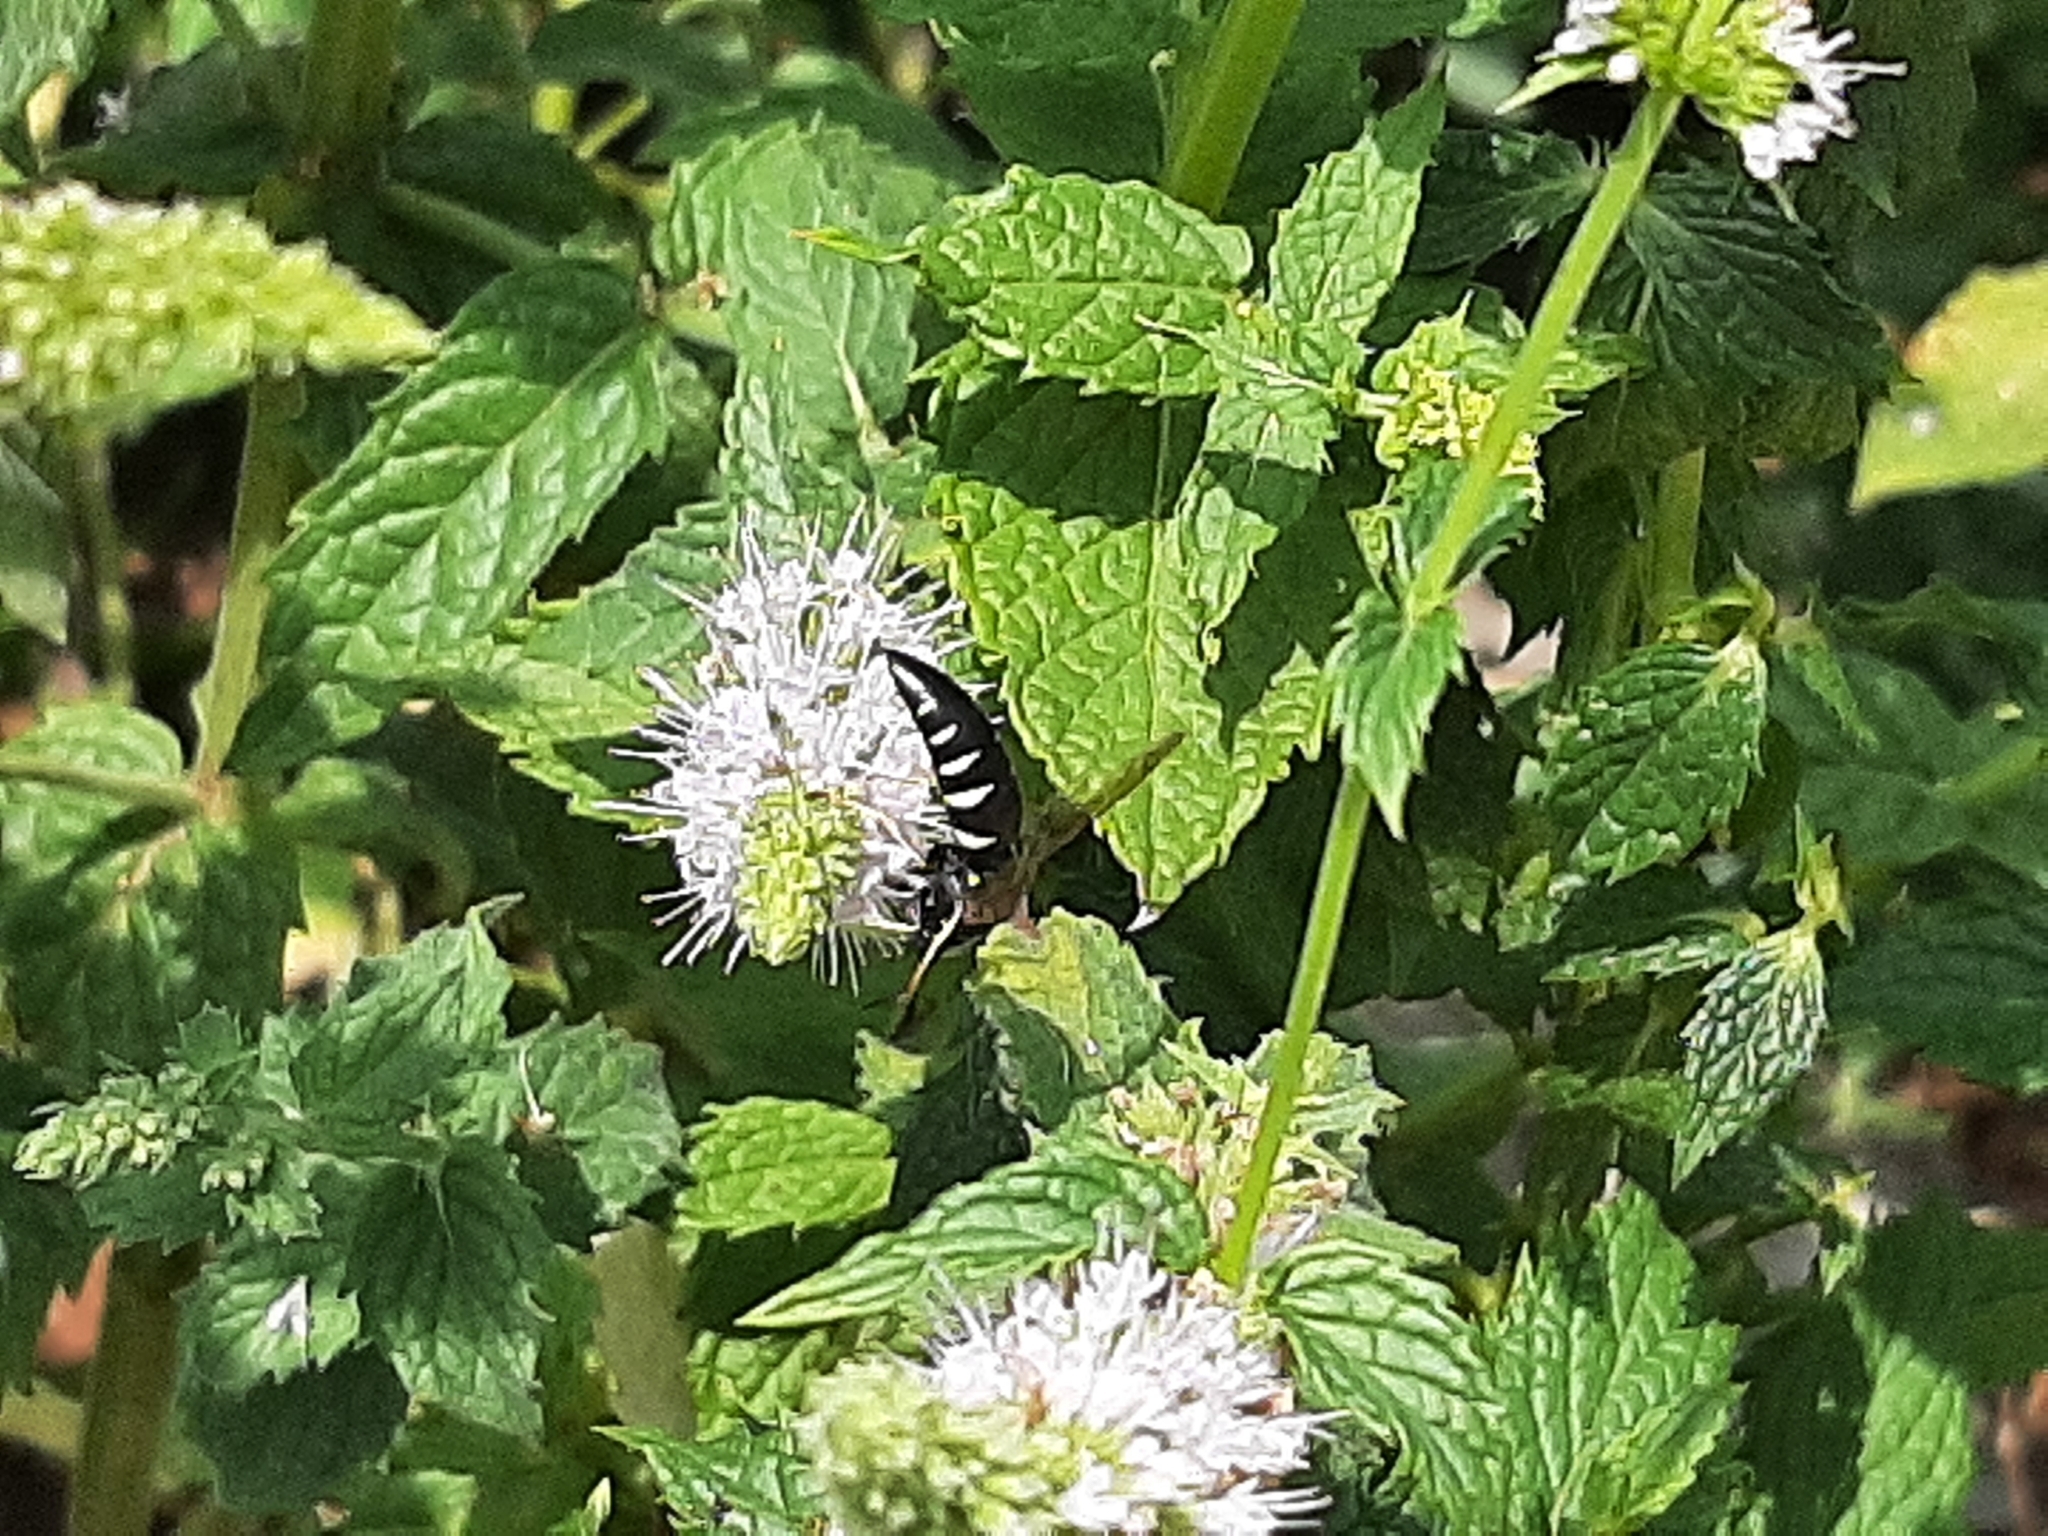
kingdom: Animalia
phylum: Arthropoda
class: Insecta
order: Hymenoptera
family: Crabronidae
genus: Bicyrtes
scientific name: Bicyrtes quadrifasciatus
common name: Four-banded stink bug hunter wasp
